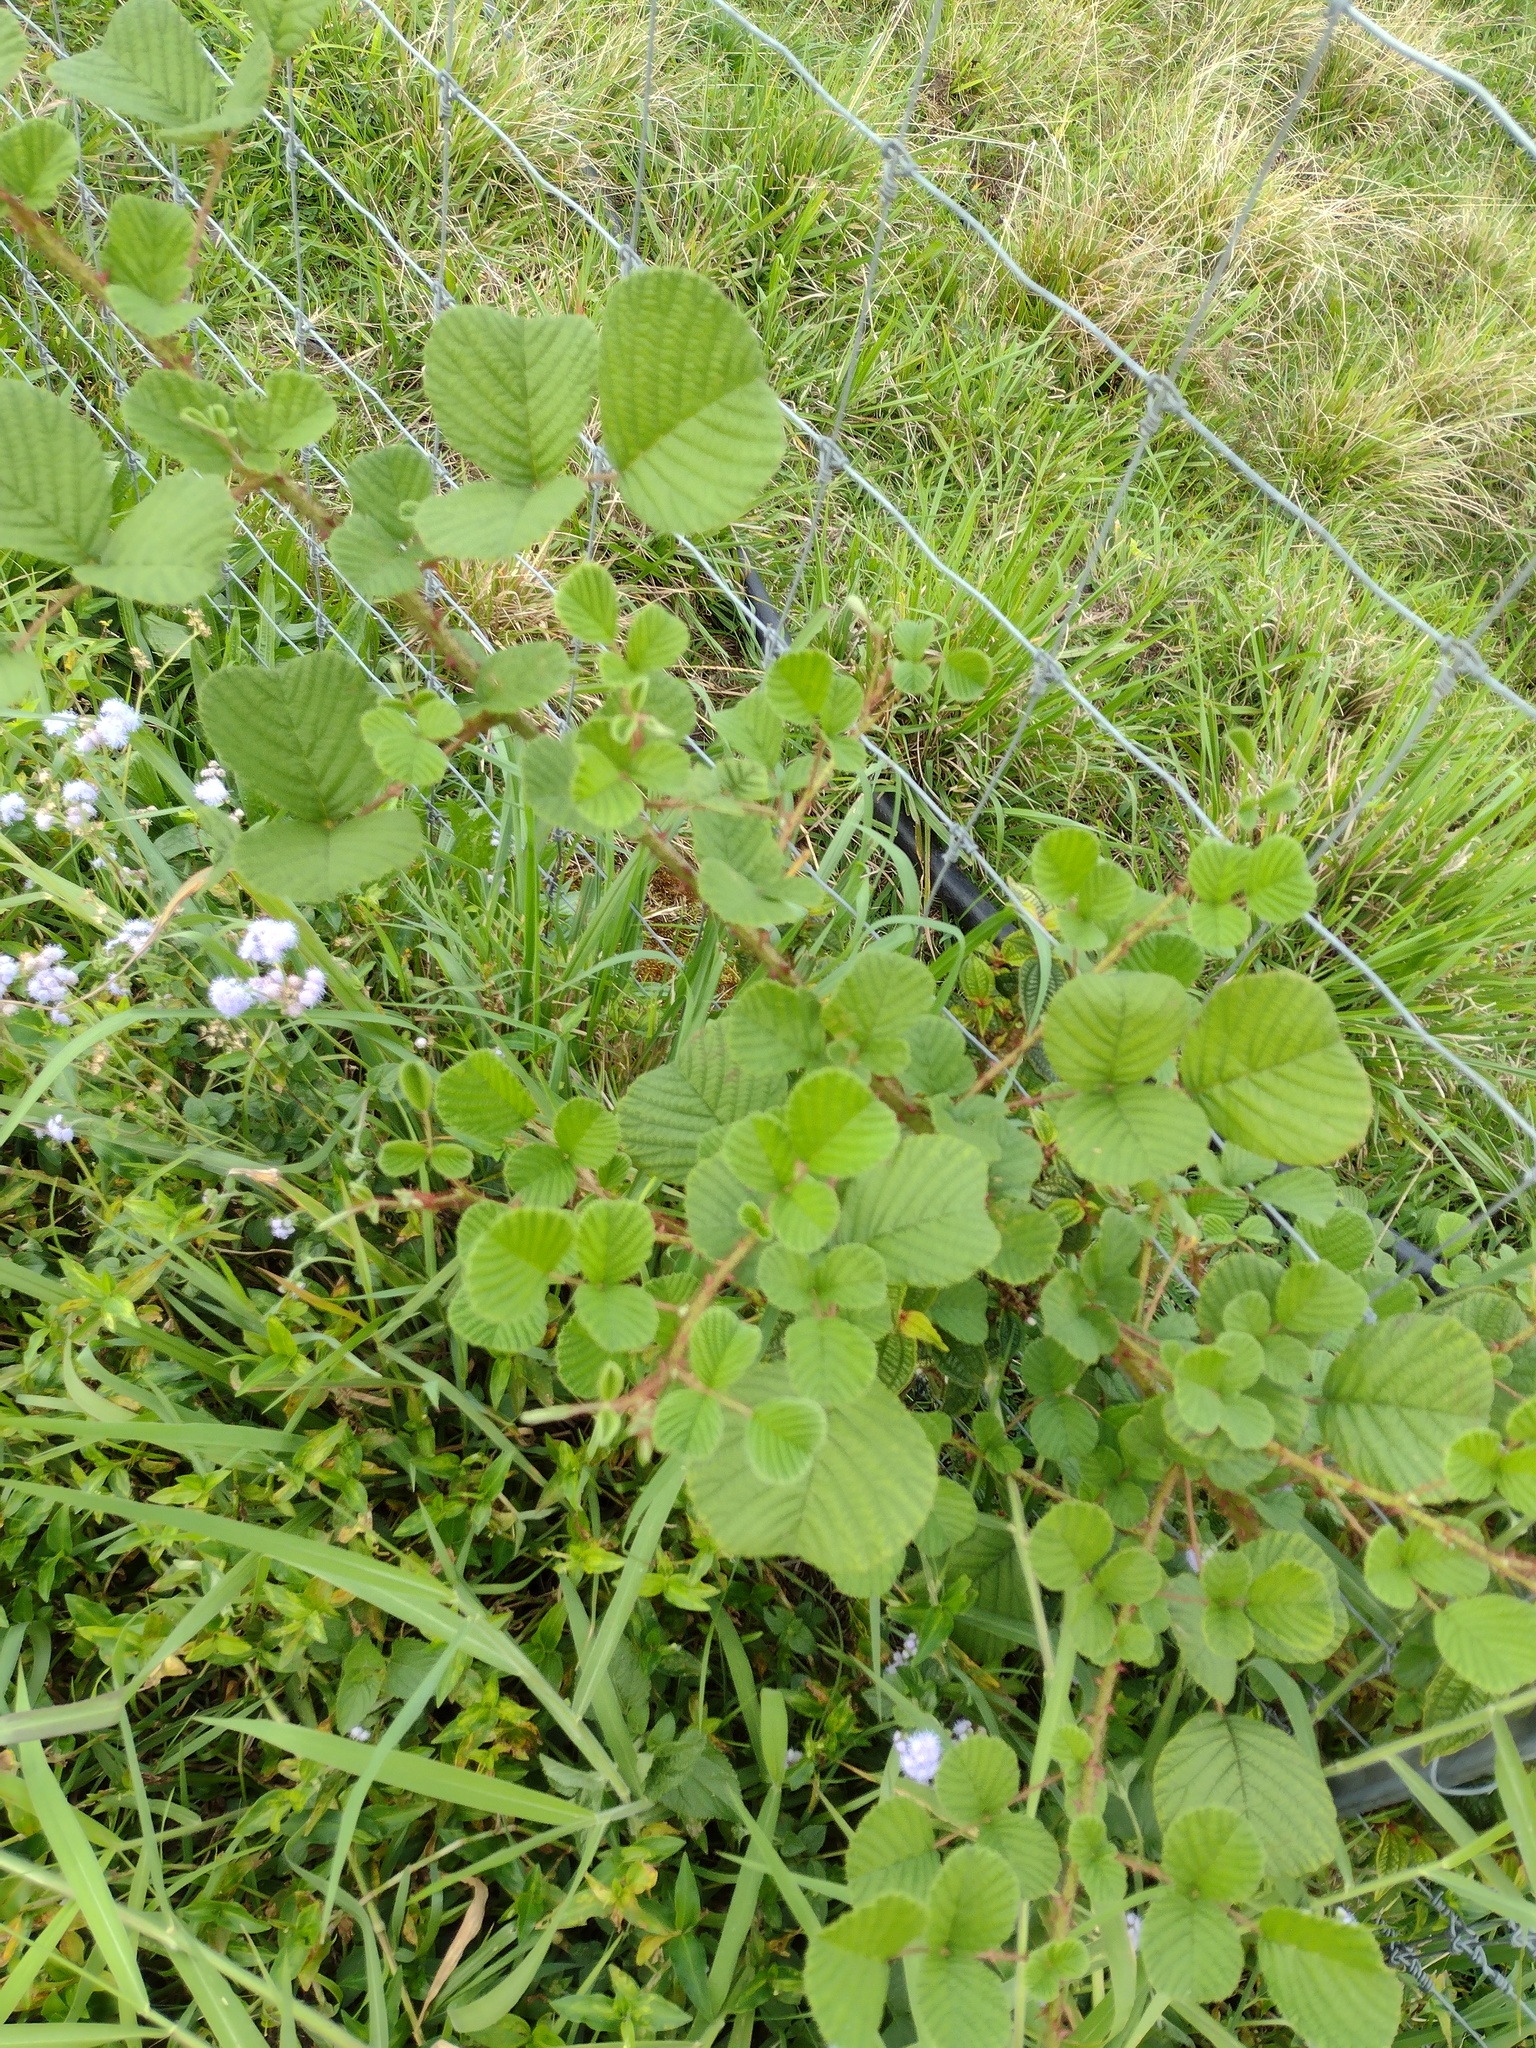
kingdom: Plantae
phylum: Tracheophyta
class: Magnoliopsida
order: Rosales
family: Rosaceae
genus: Rubus
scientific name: Rubus ellipticus
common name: Cheeseberry
